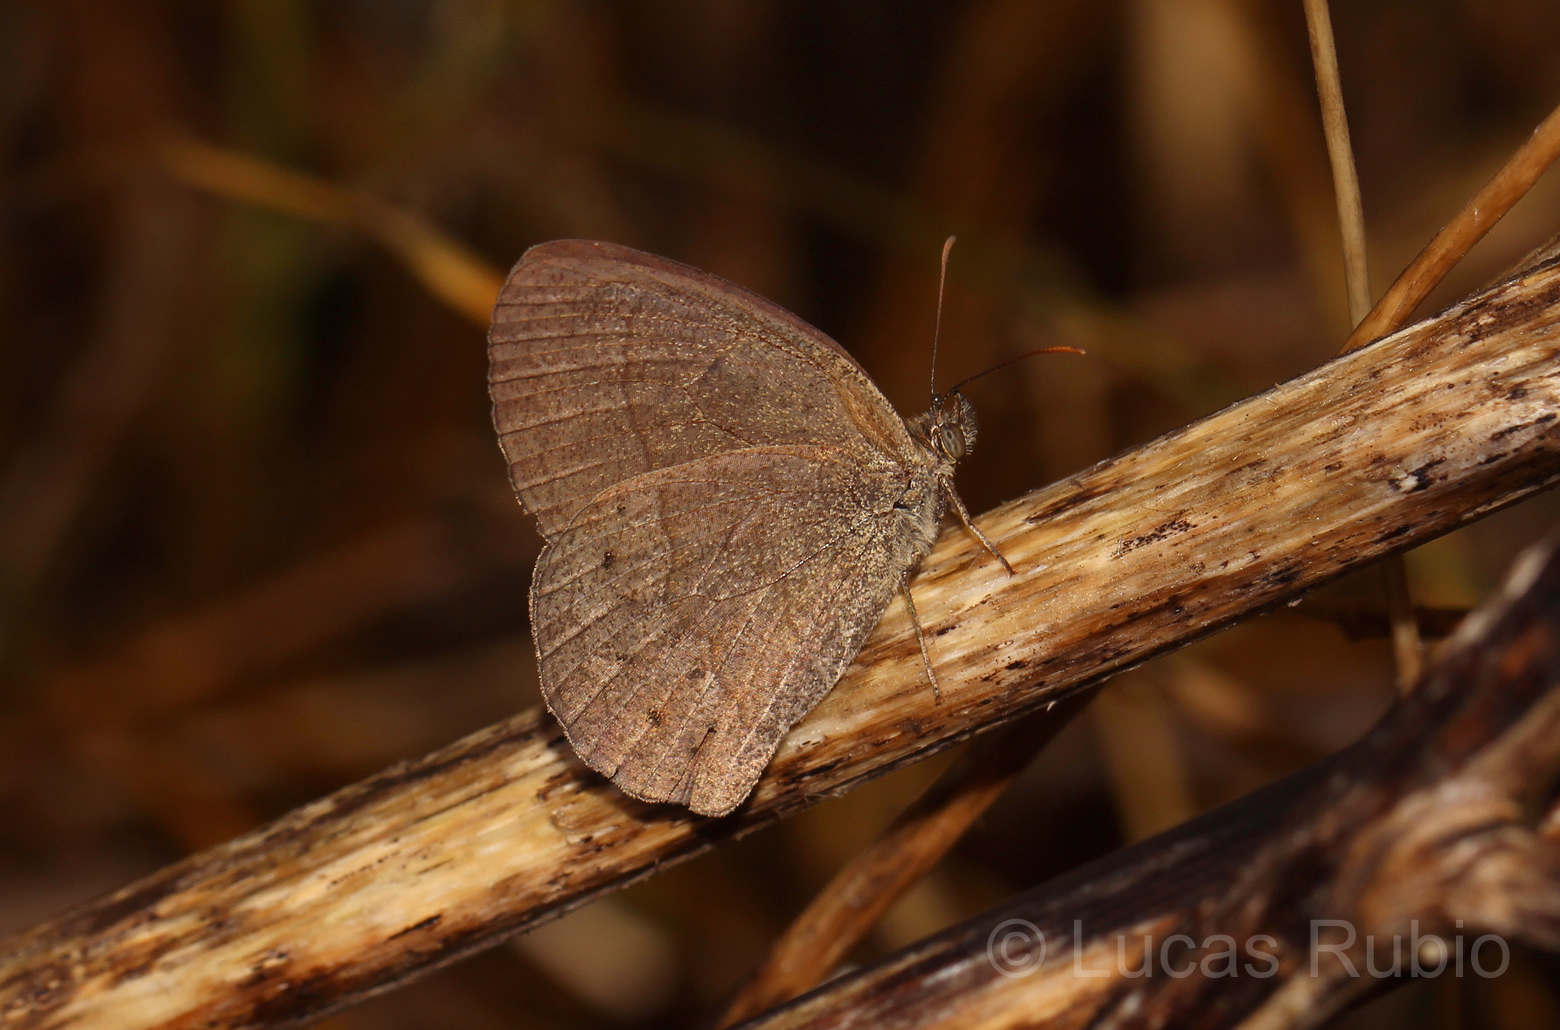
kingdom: Animalia
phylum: Arthropoda
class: Insecta
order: Lepidoptera
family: Nymphalidae
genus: Yphthimoides
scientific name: Yphthimoides celmis
